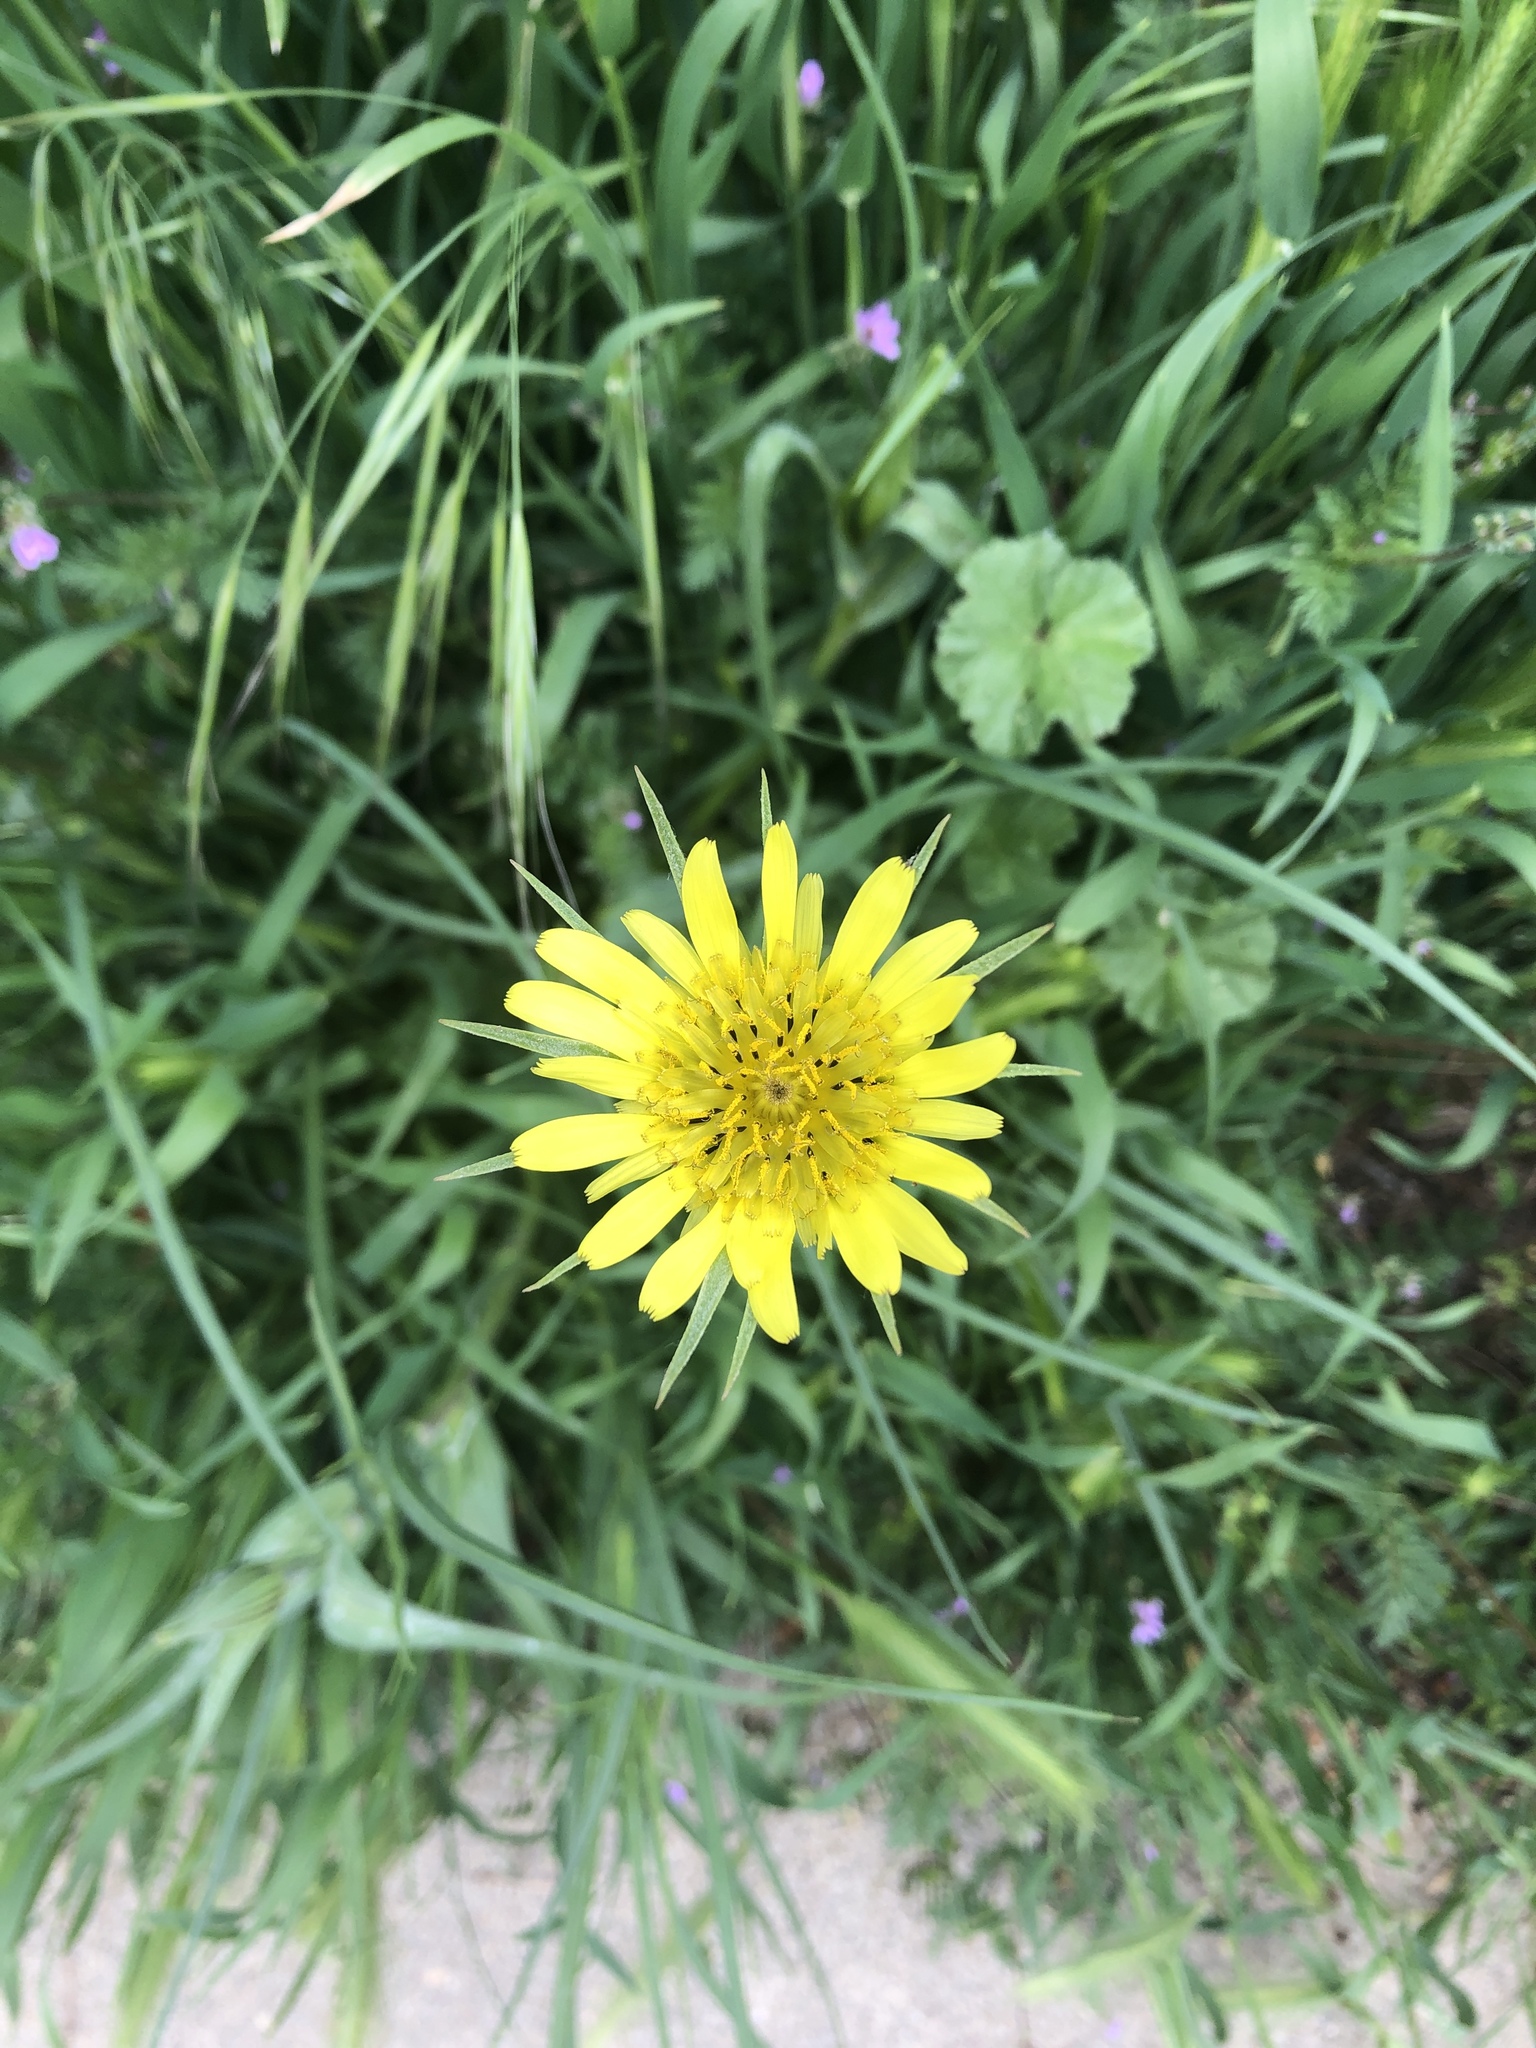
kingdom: Plantae
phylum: Tracheophyta
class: Magnoliopsida
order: Asterales
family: Asteraceae
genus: Tragopogon
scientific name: Tragopogon dubius
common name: Yellow salsify
